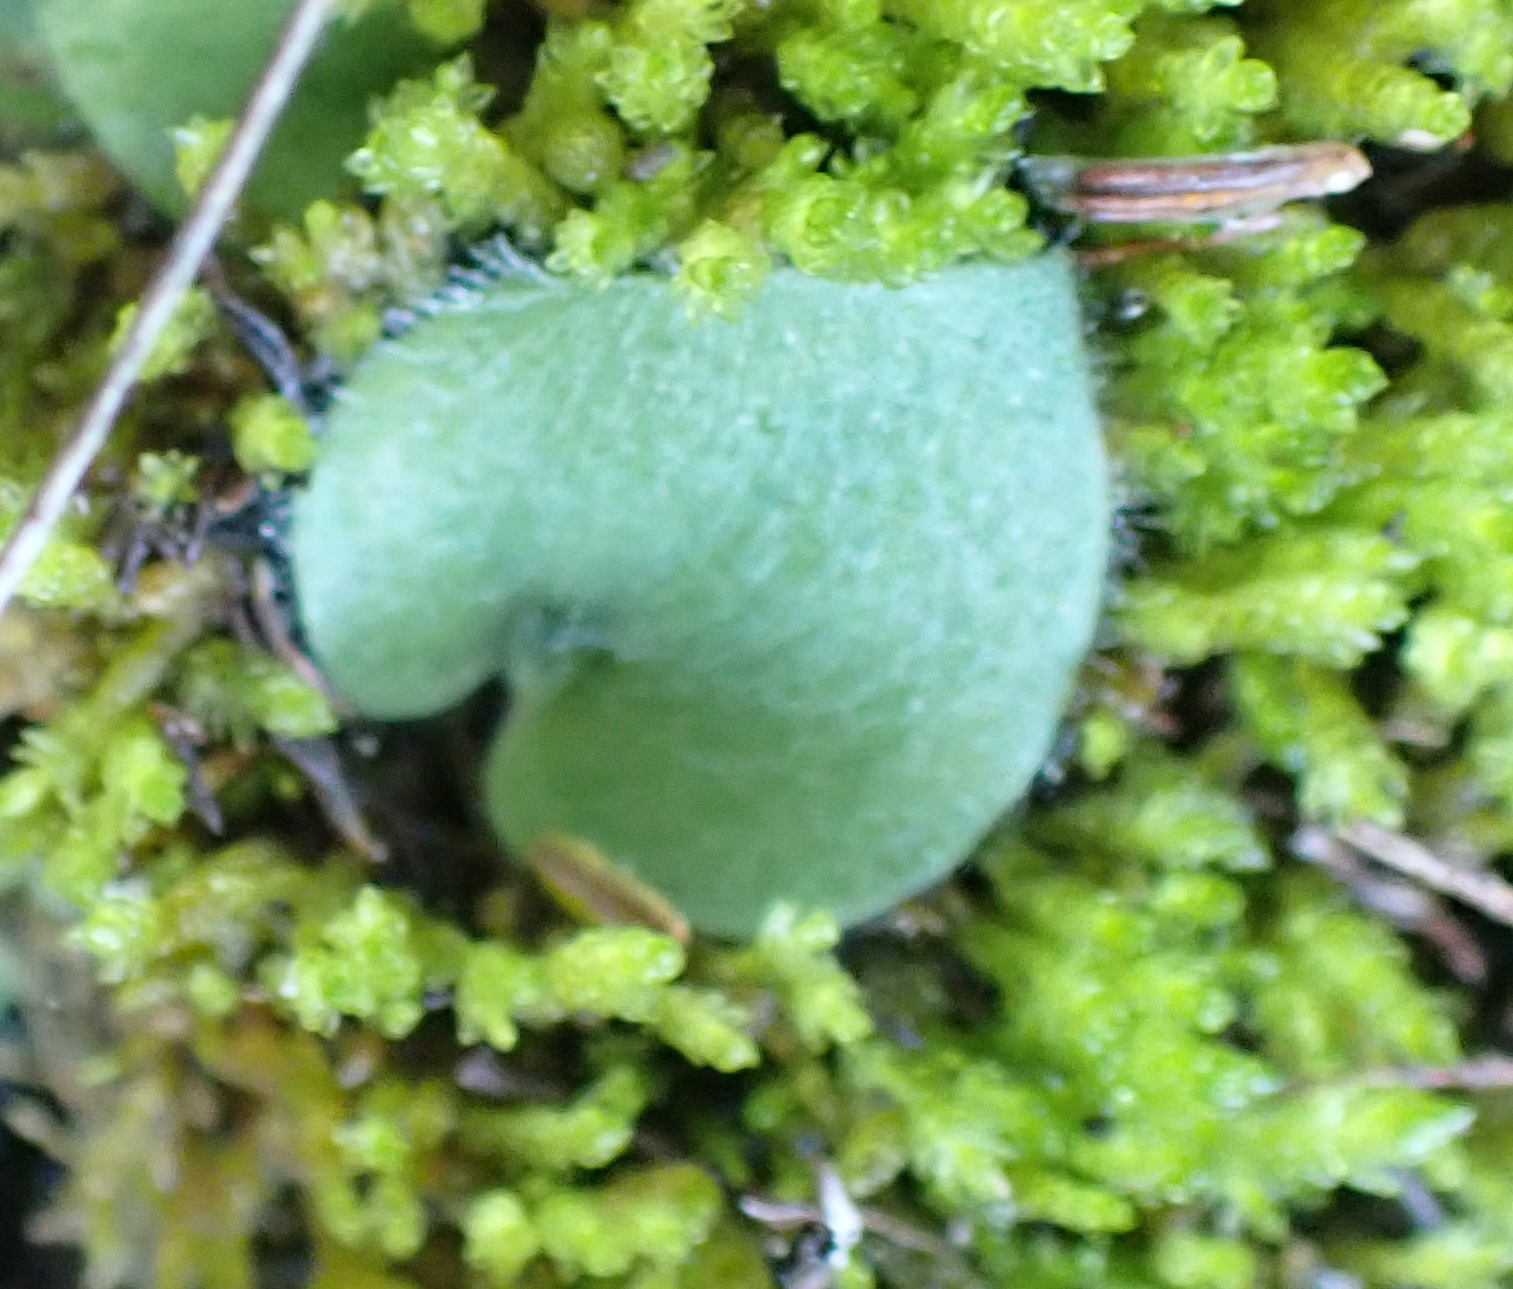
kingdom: Plantae
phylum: Tracheophyta
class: Liliopsida
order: Asparagales
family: Orchidaceae
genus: Holothrix
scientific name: Holothrix villosa
